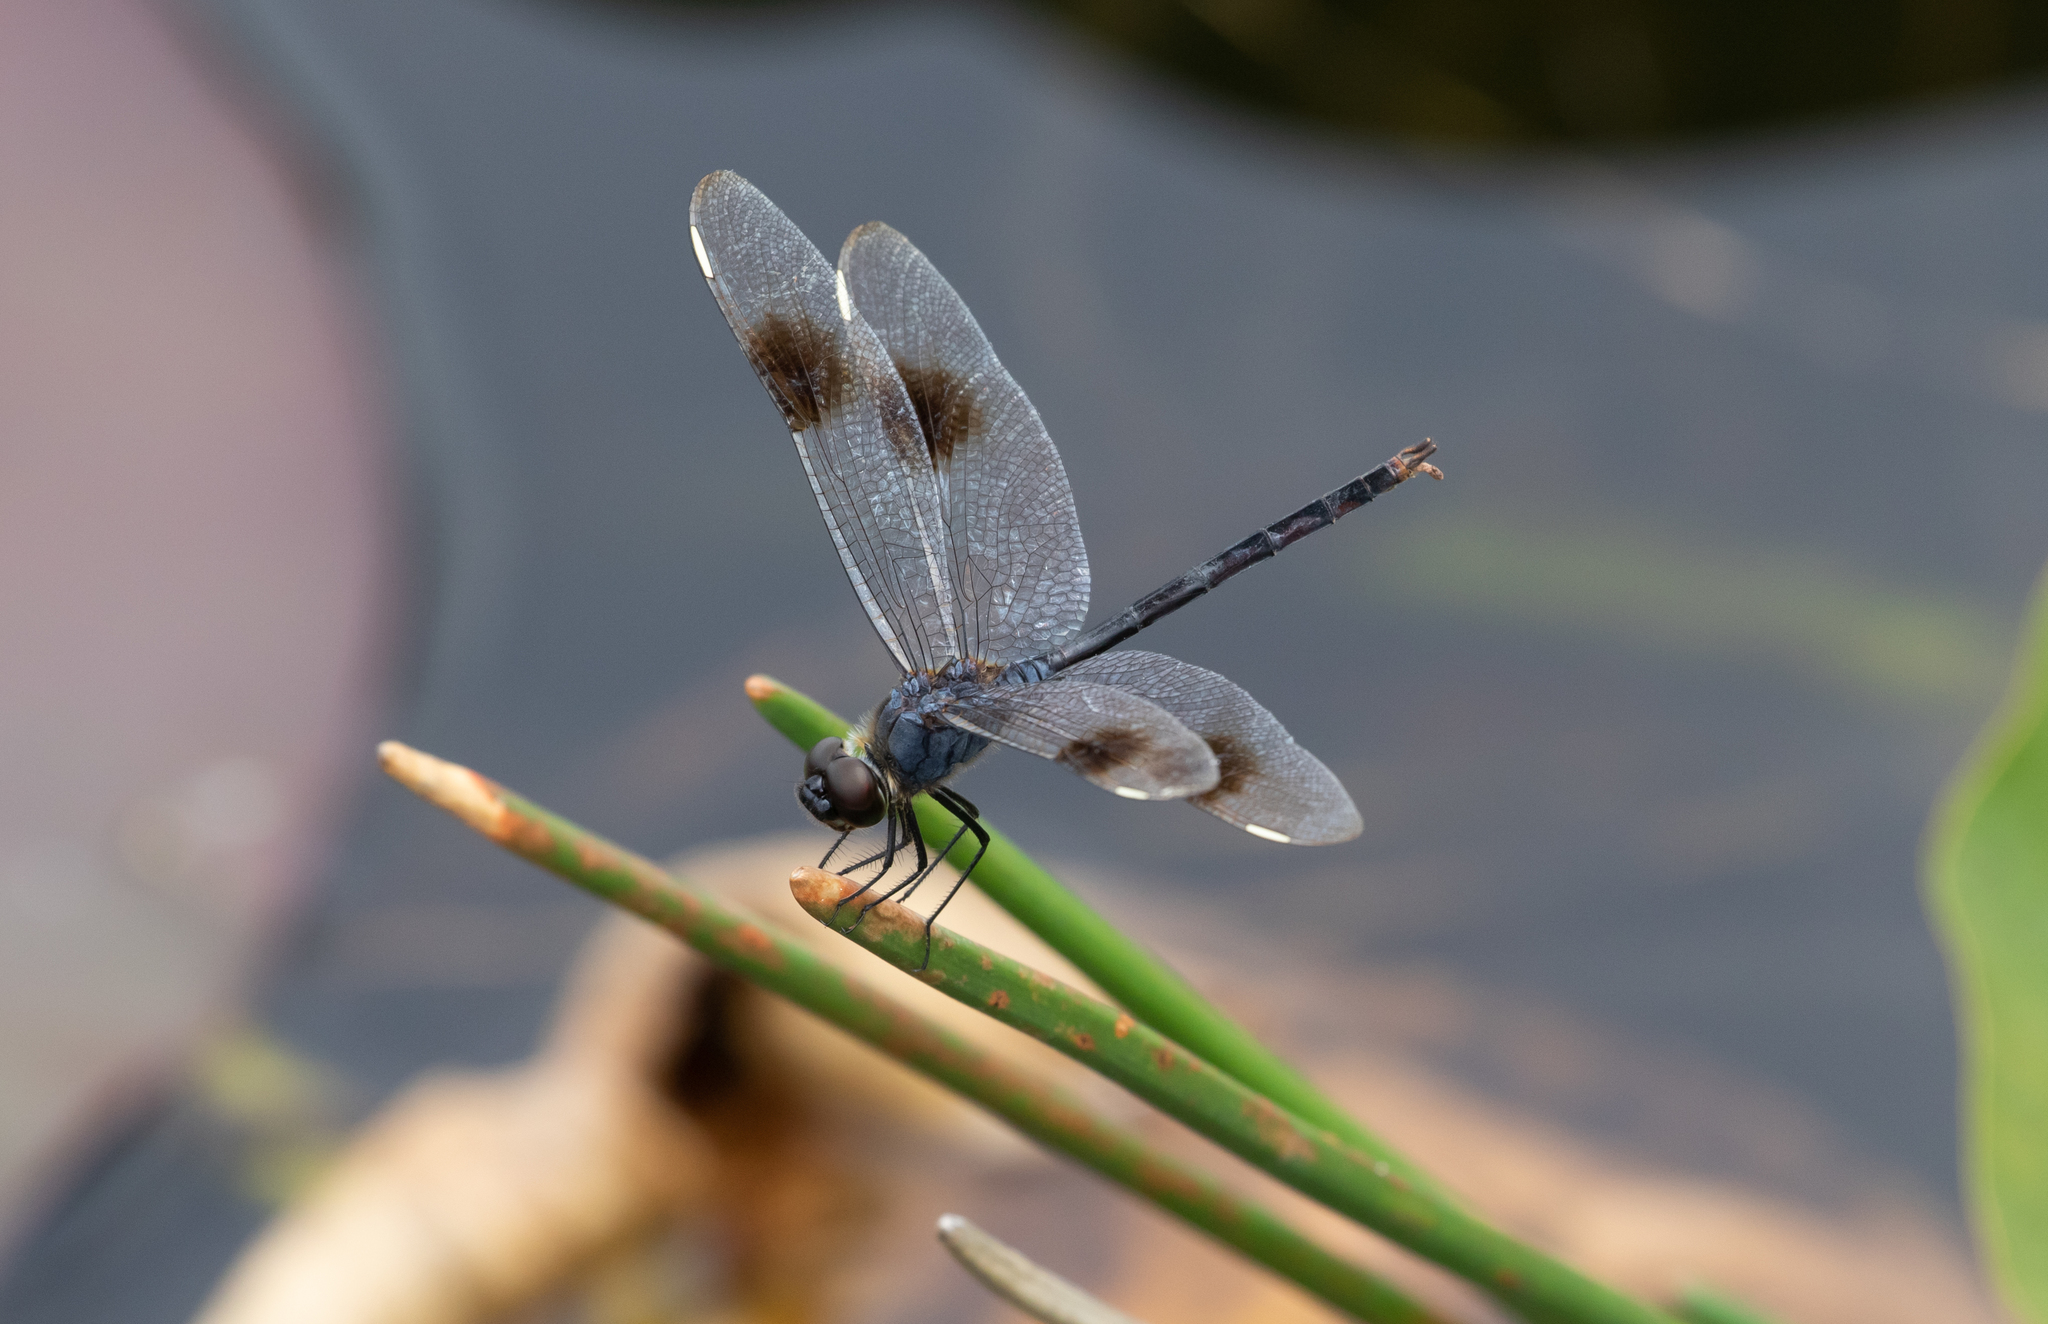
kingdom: Animalia
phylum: Arthropoda
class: Insecta
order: Odonata
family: Libellulidae
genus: Brachymesia
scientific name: Brachymesia gravida
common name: Four-spotted pennant
